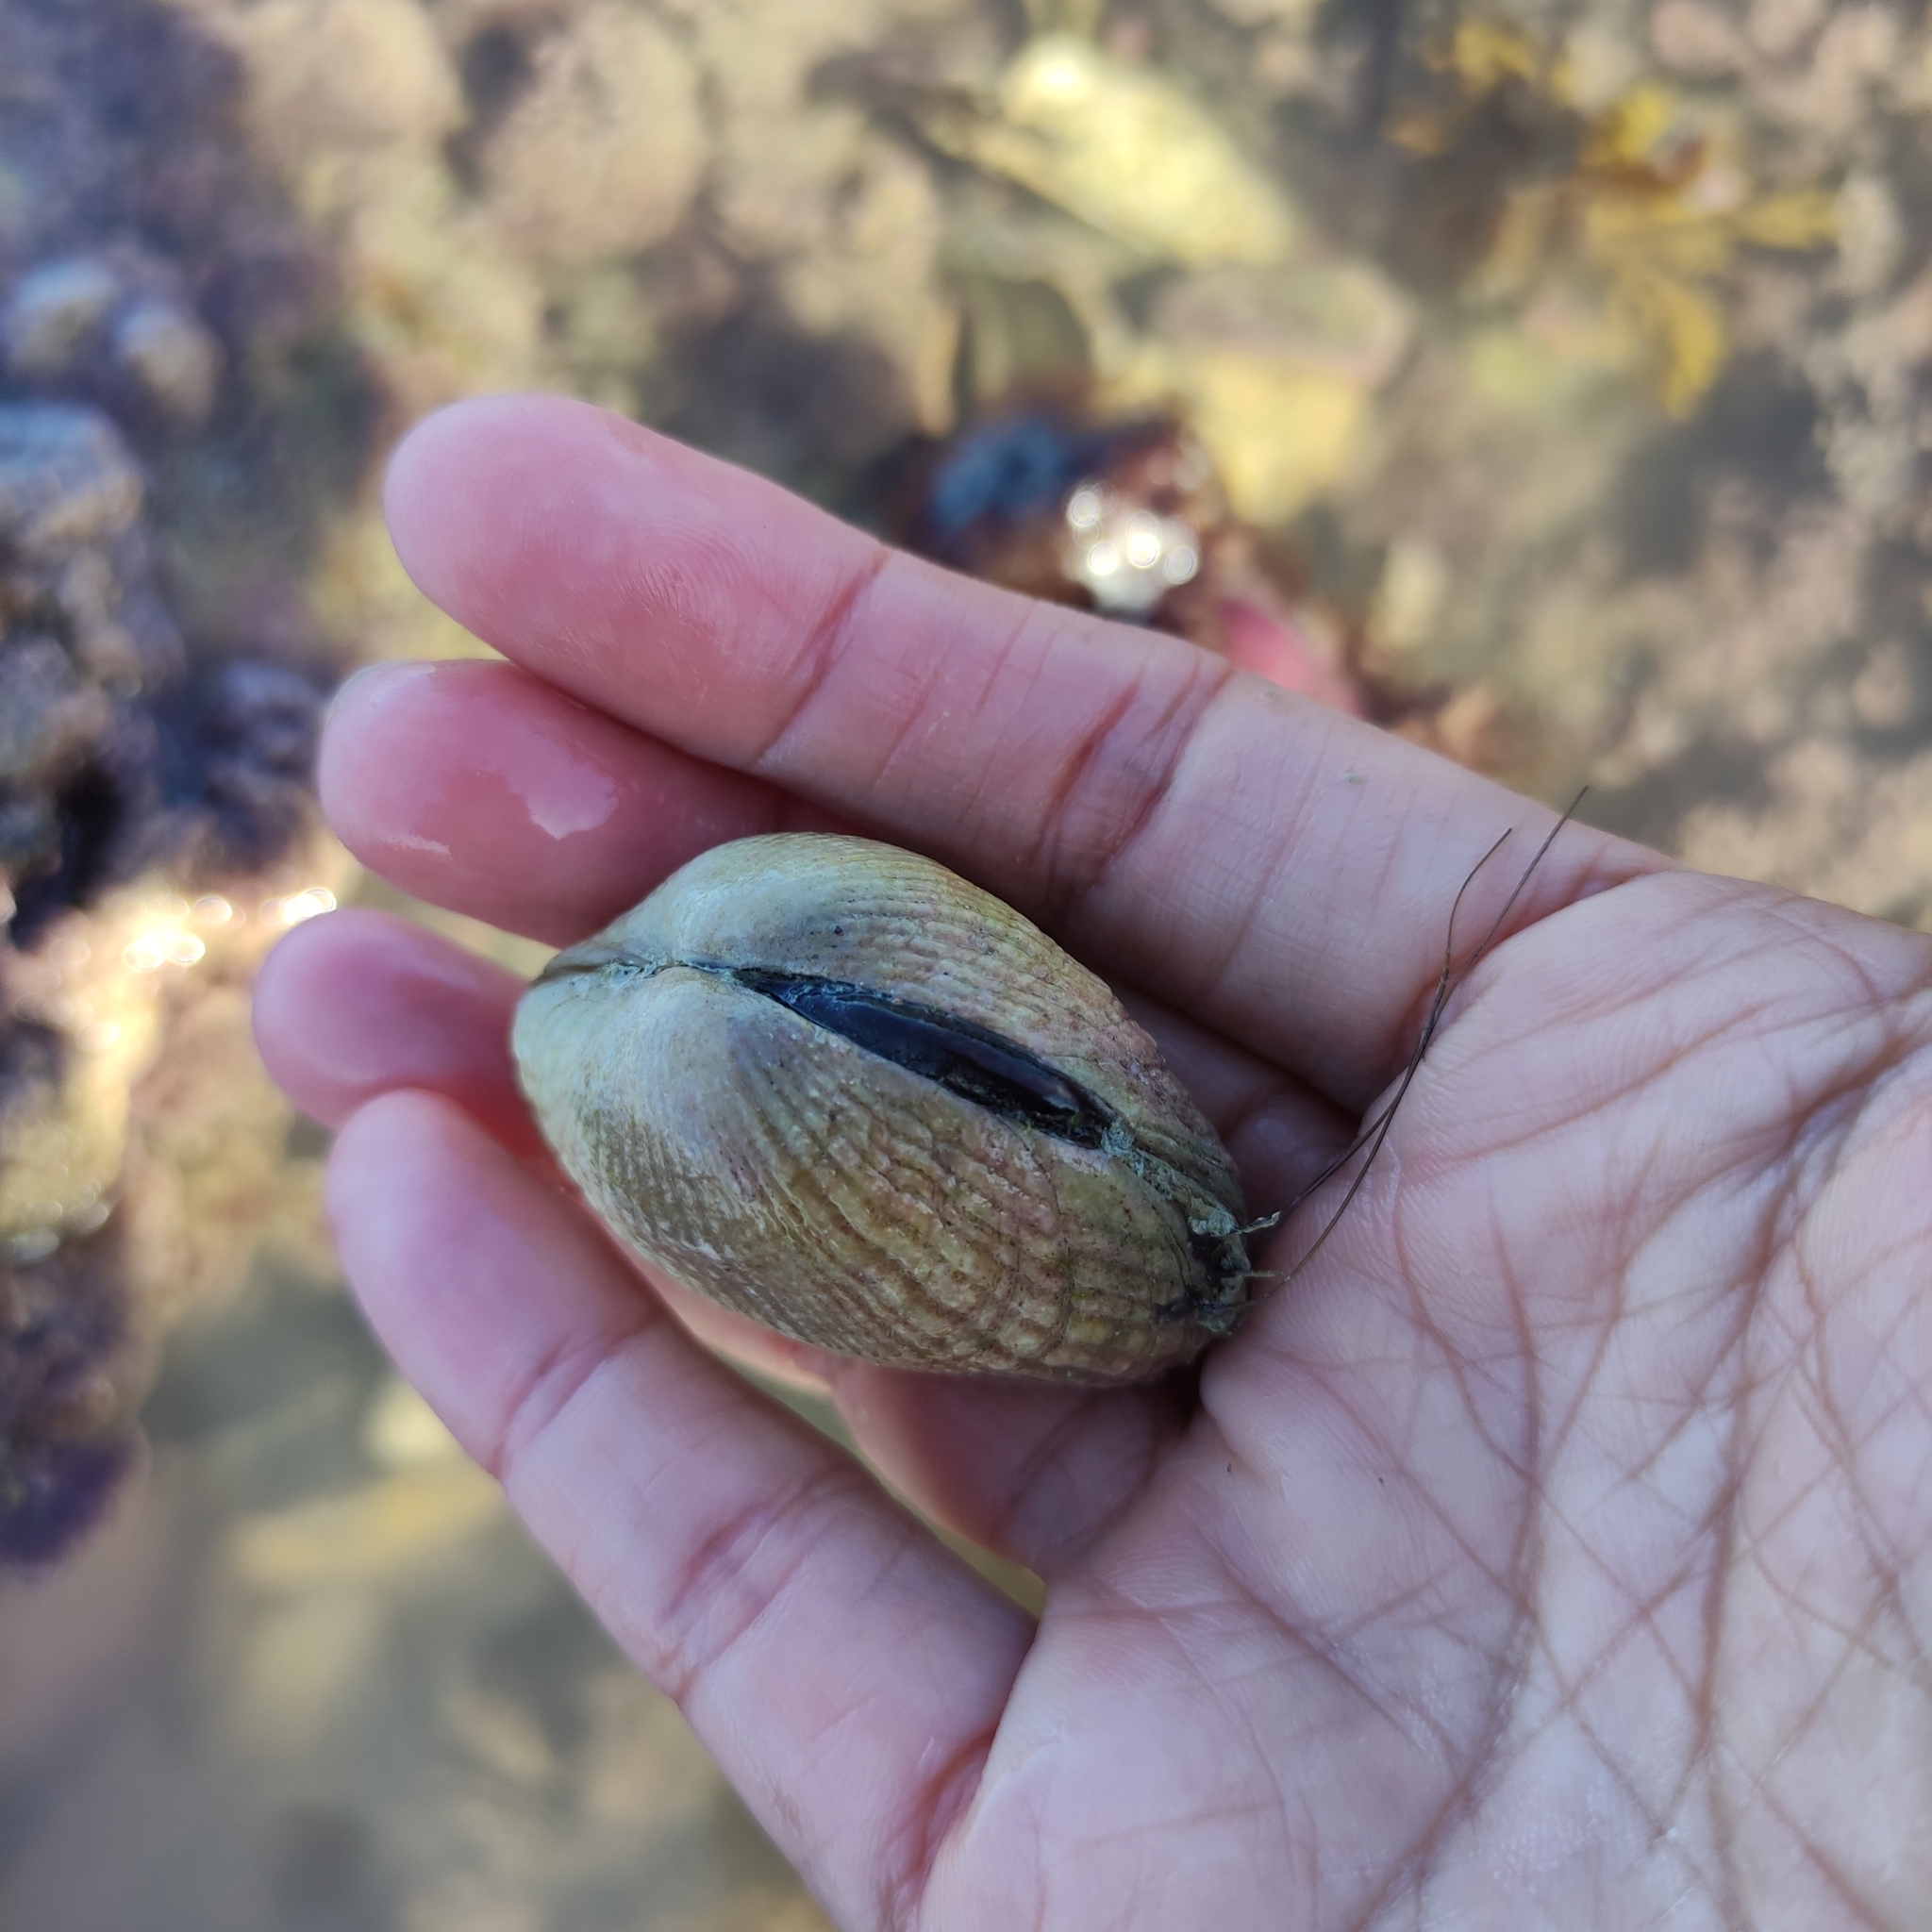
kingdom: Animalia
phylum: Mollusca
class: Bivalvia
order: Venerida
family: Veneridae
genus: Leukoma
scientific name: Leukoma crassicosta
